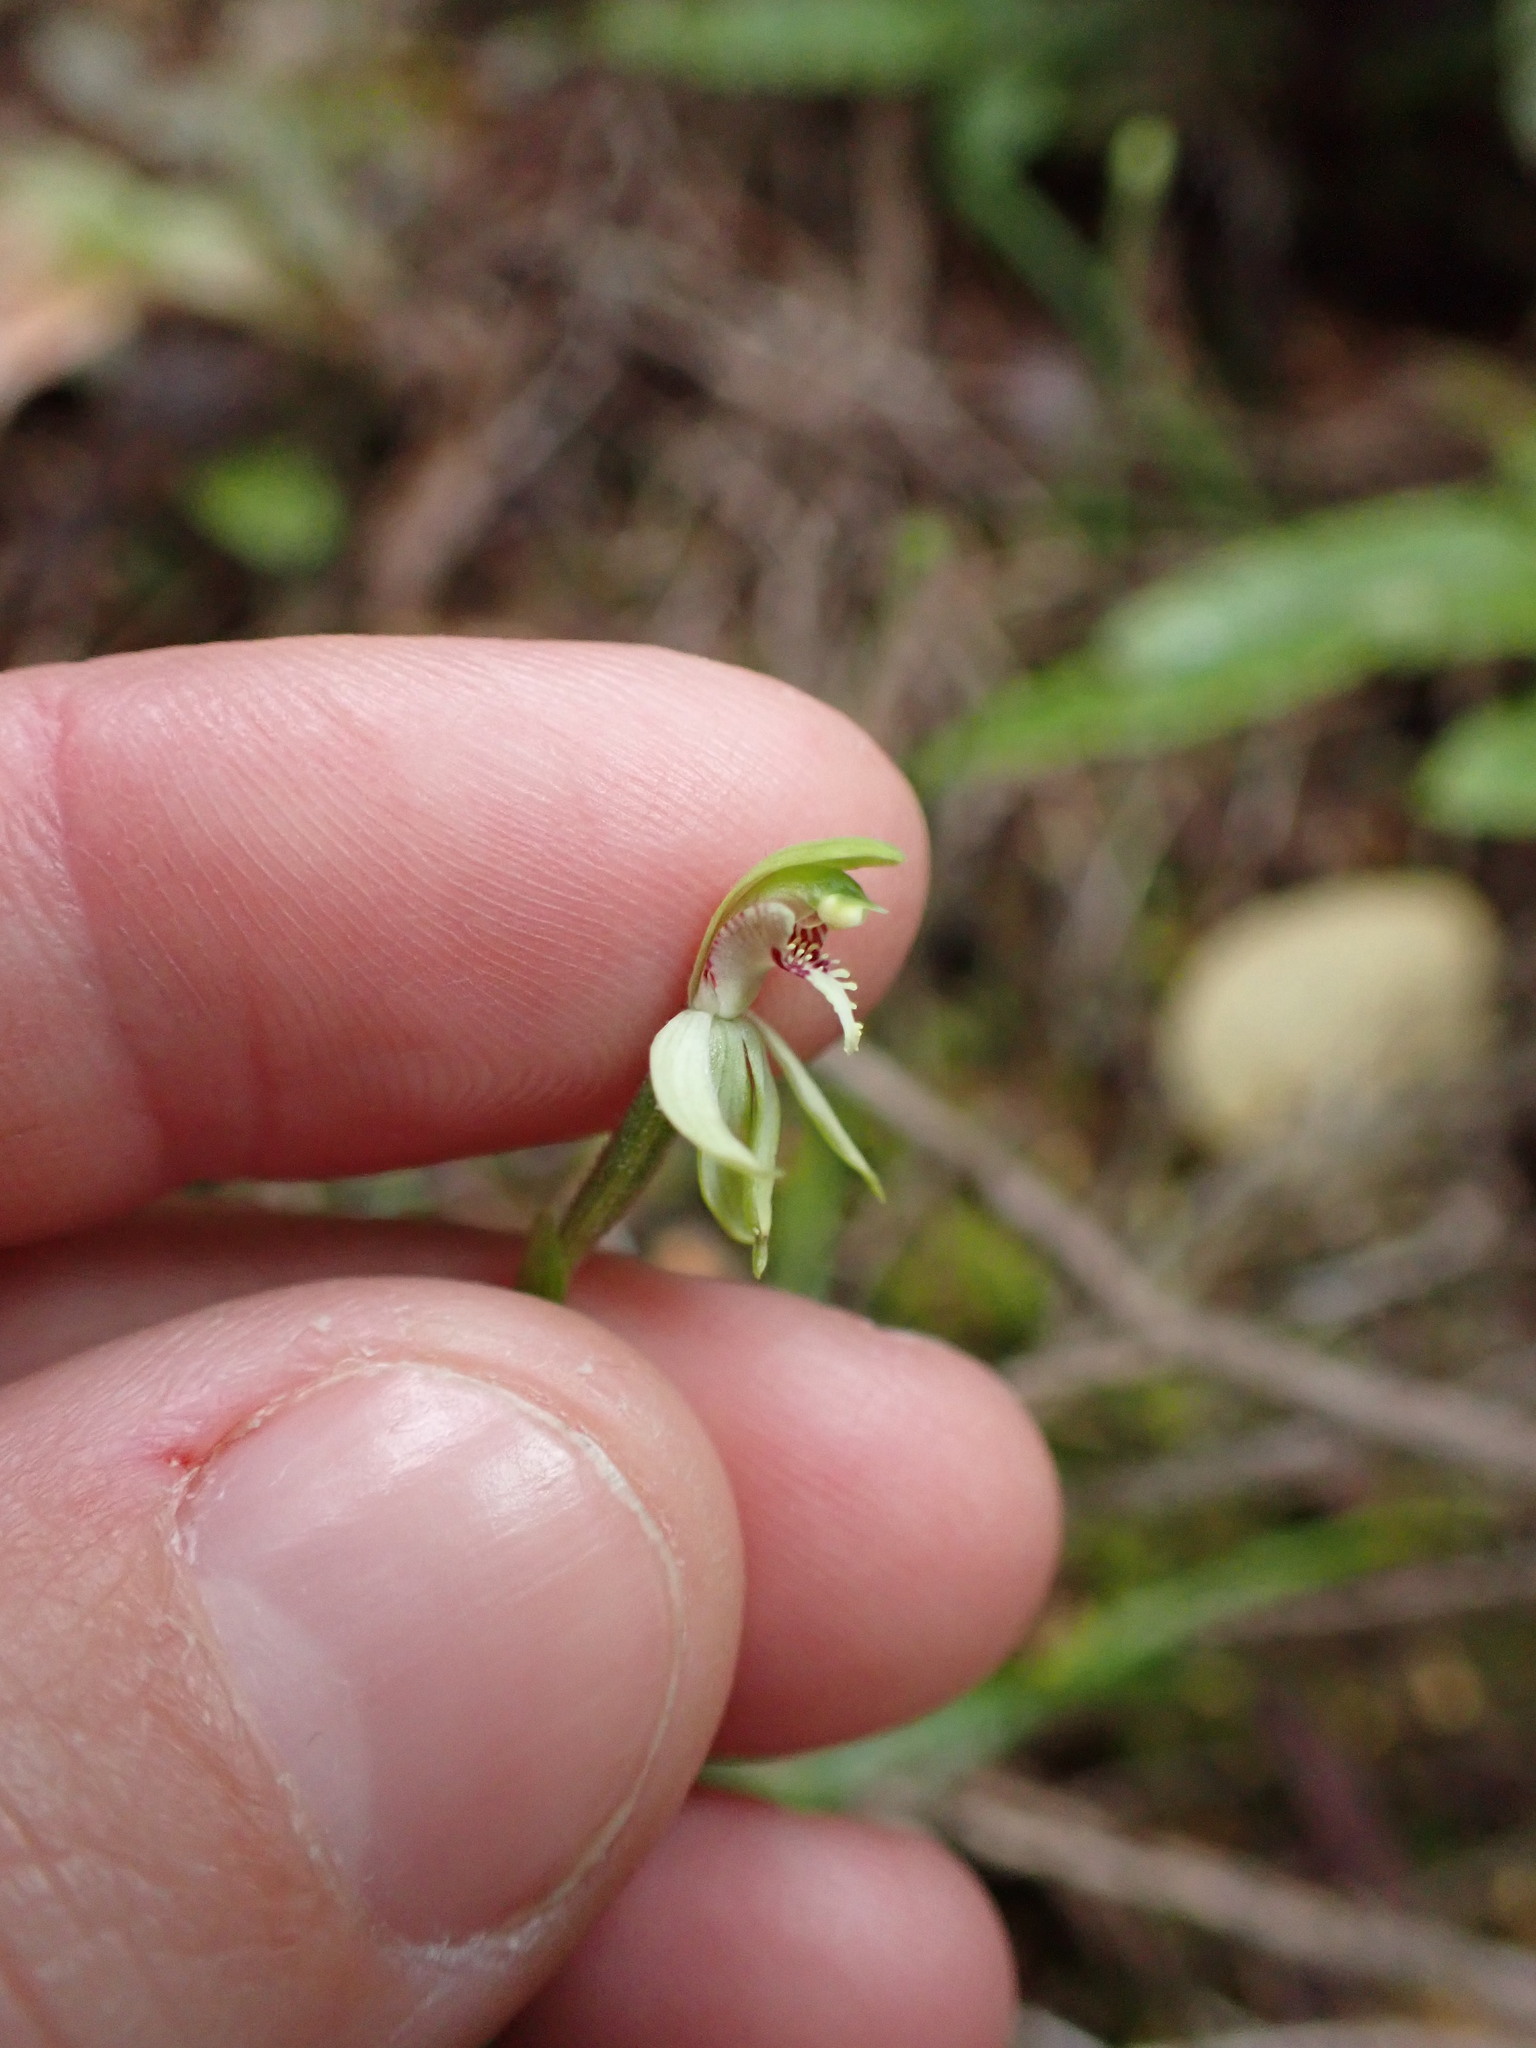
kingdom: Plantae
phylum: Tracheophyta
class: Liliopsida
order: Asparagales
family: Orchidaceae
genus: Caladenia
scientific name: Caladenia chlorostyla
